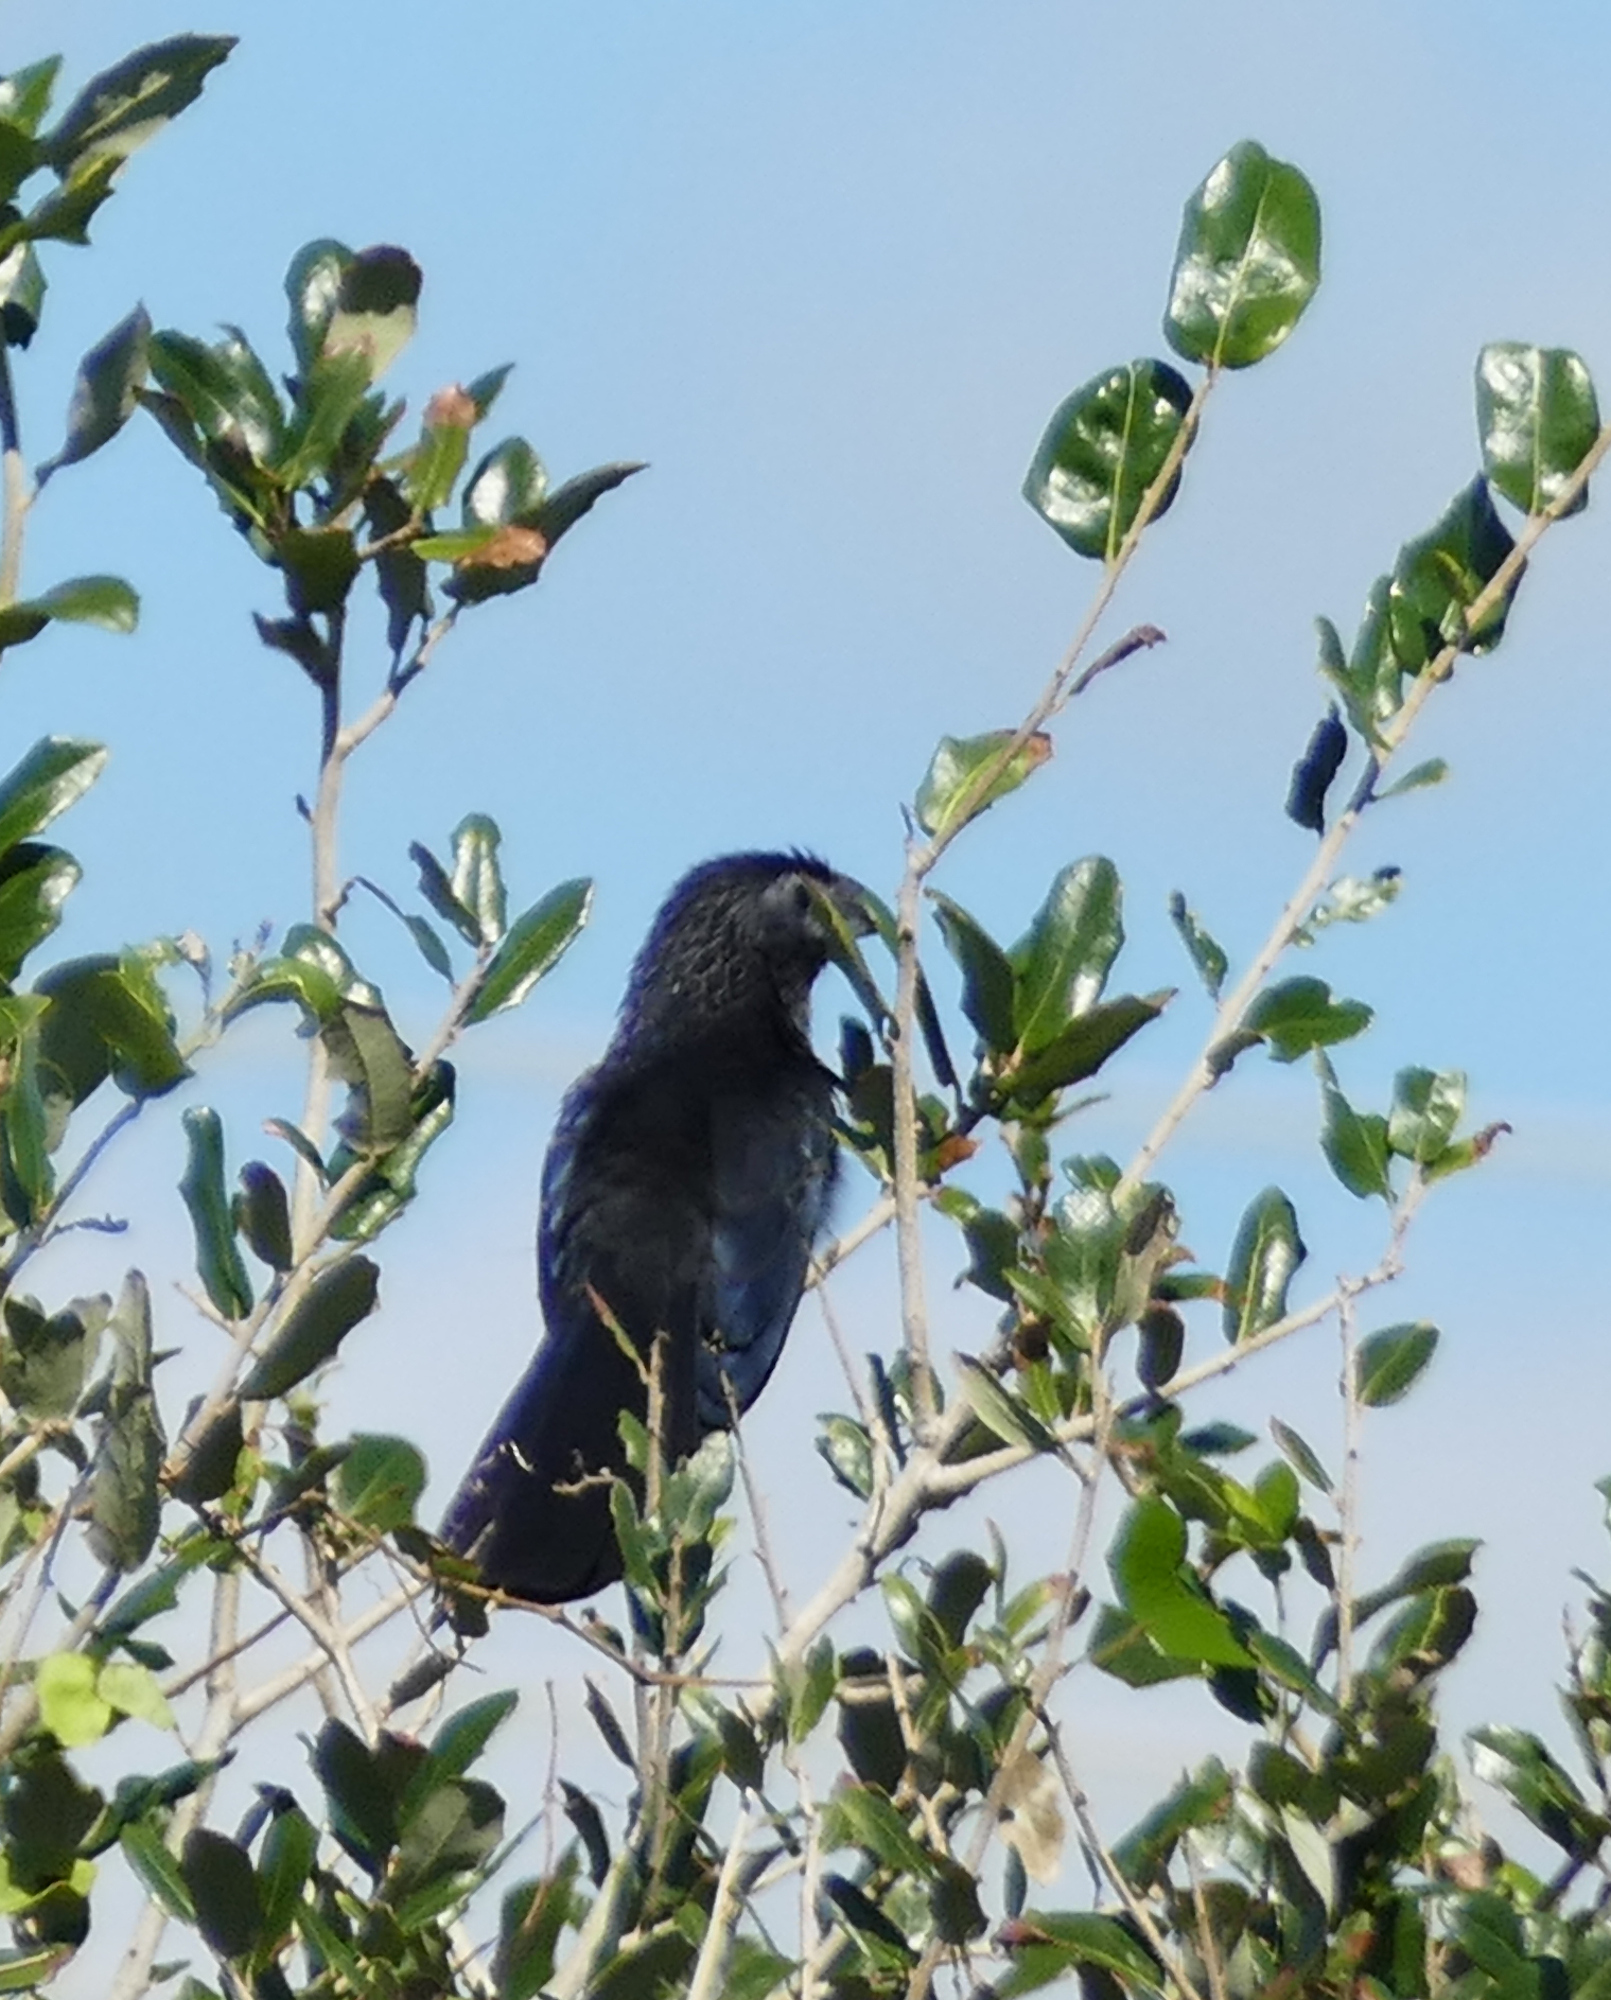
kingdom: Animalia
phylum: Chordata
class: Aves
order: Cuculiformes
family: Cuculidae
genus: Crotophaga
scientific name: Crotophaga sulcirostris
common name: Groove-billed ani
